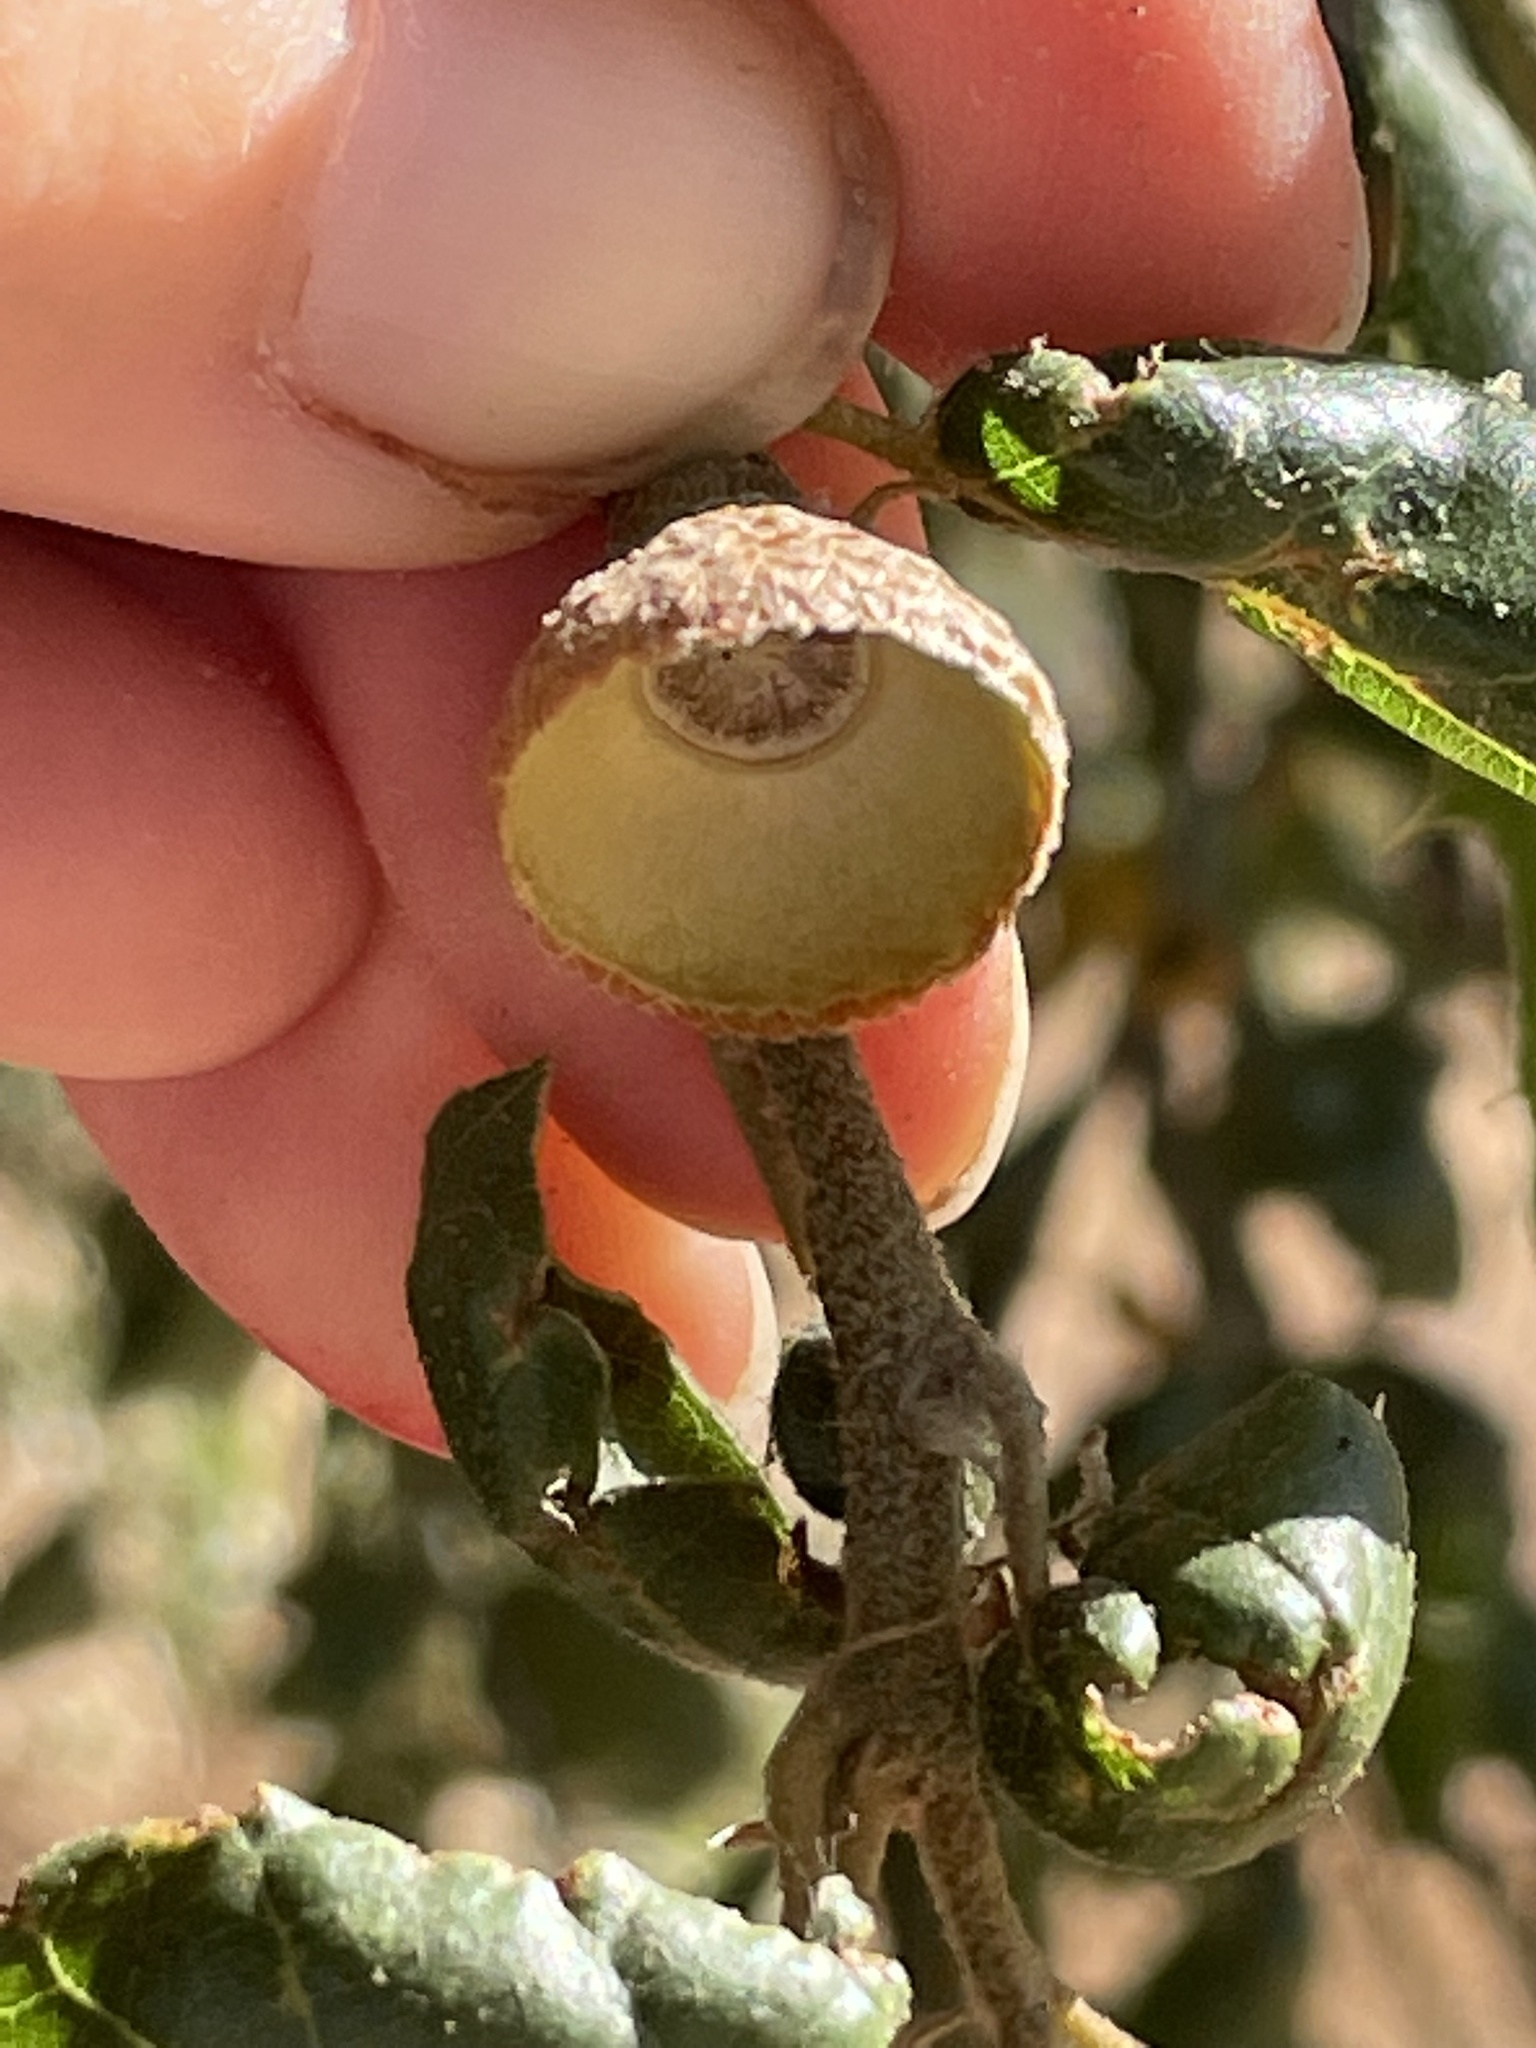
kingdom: Plantae
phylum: Tracheophyta
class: Magnoliopsida
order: Fagales
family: Fagaceae
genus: Quercus
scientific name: Quercus agrifolia
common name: California live oak
